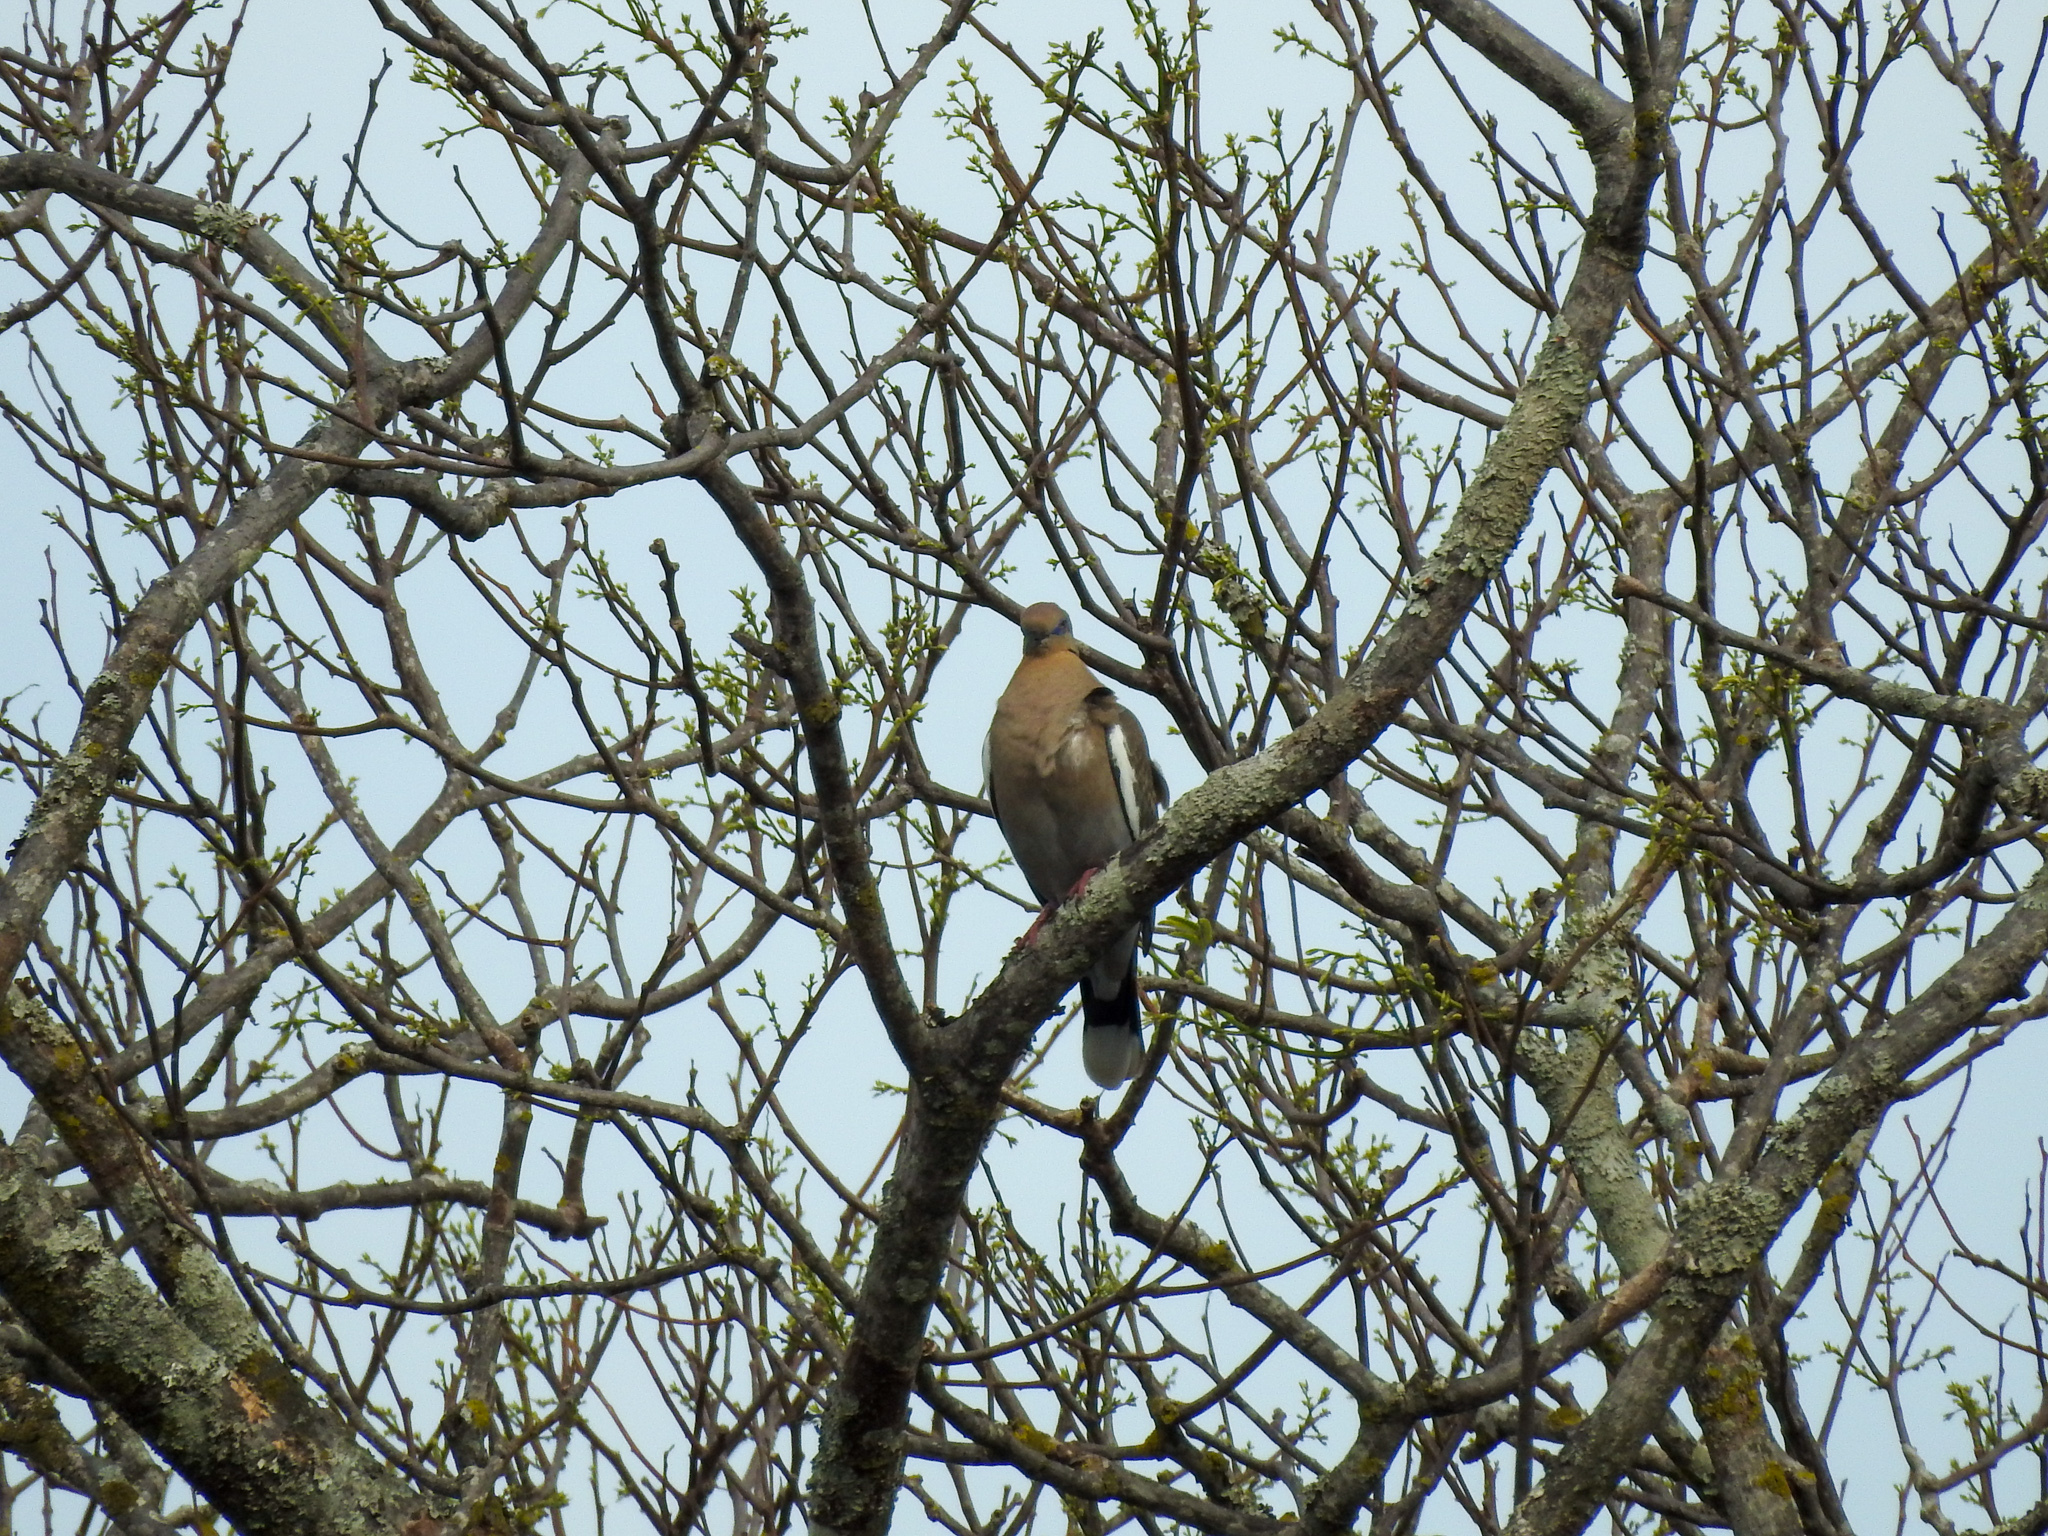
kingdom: Animalia
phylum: Chordata
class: Aves
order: Columbiformes
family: Columbidae
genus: Zenaida
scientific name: Zenaida asiatica
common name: White-winged dove
